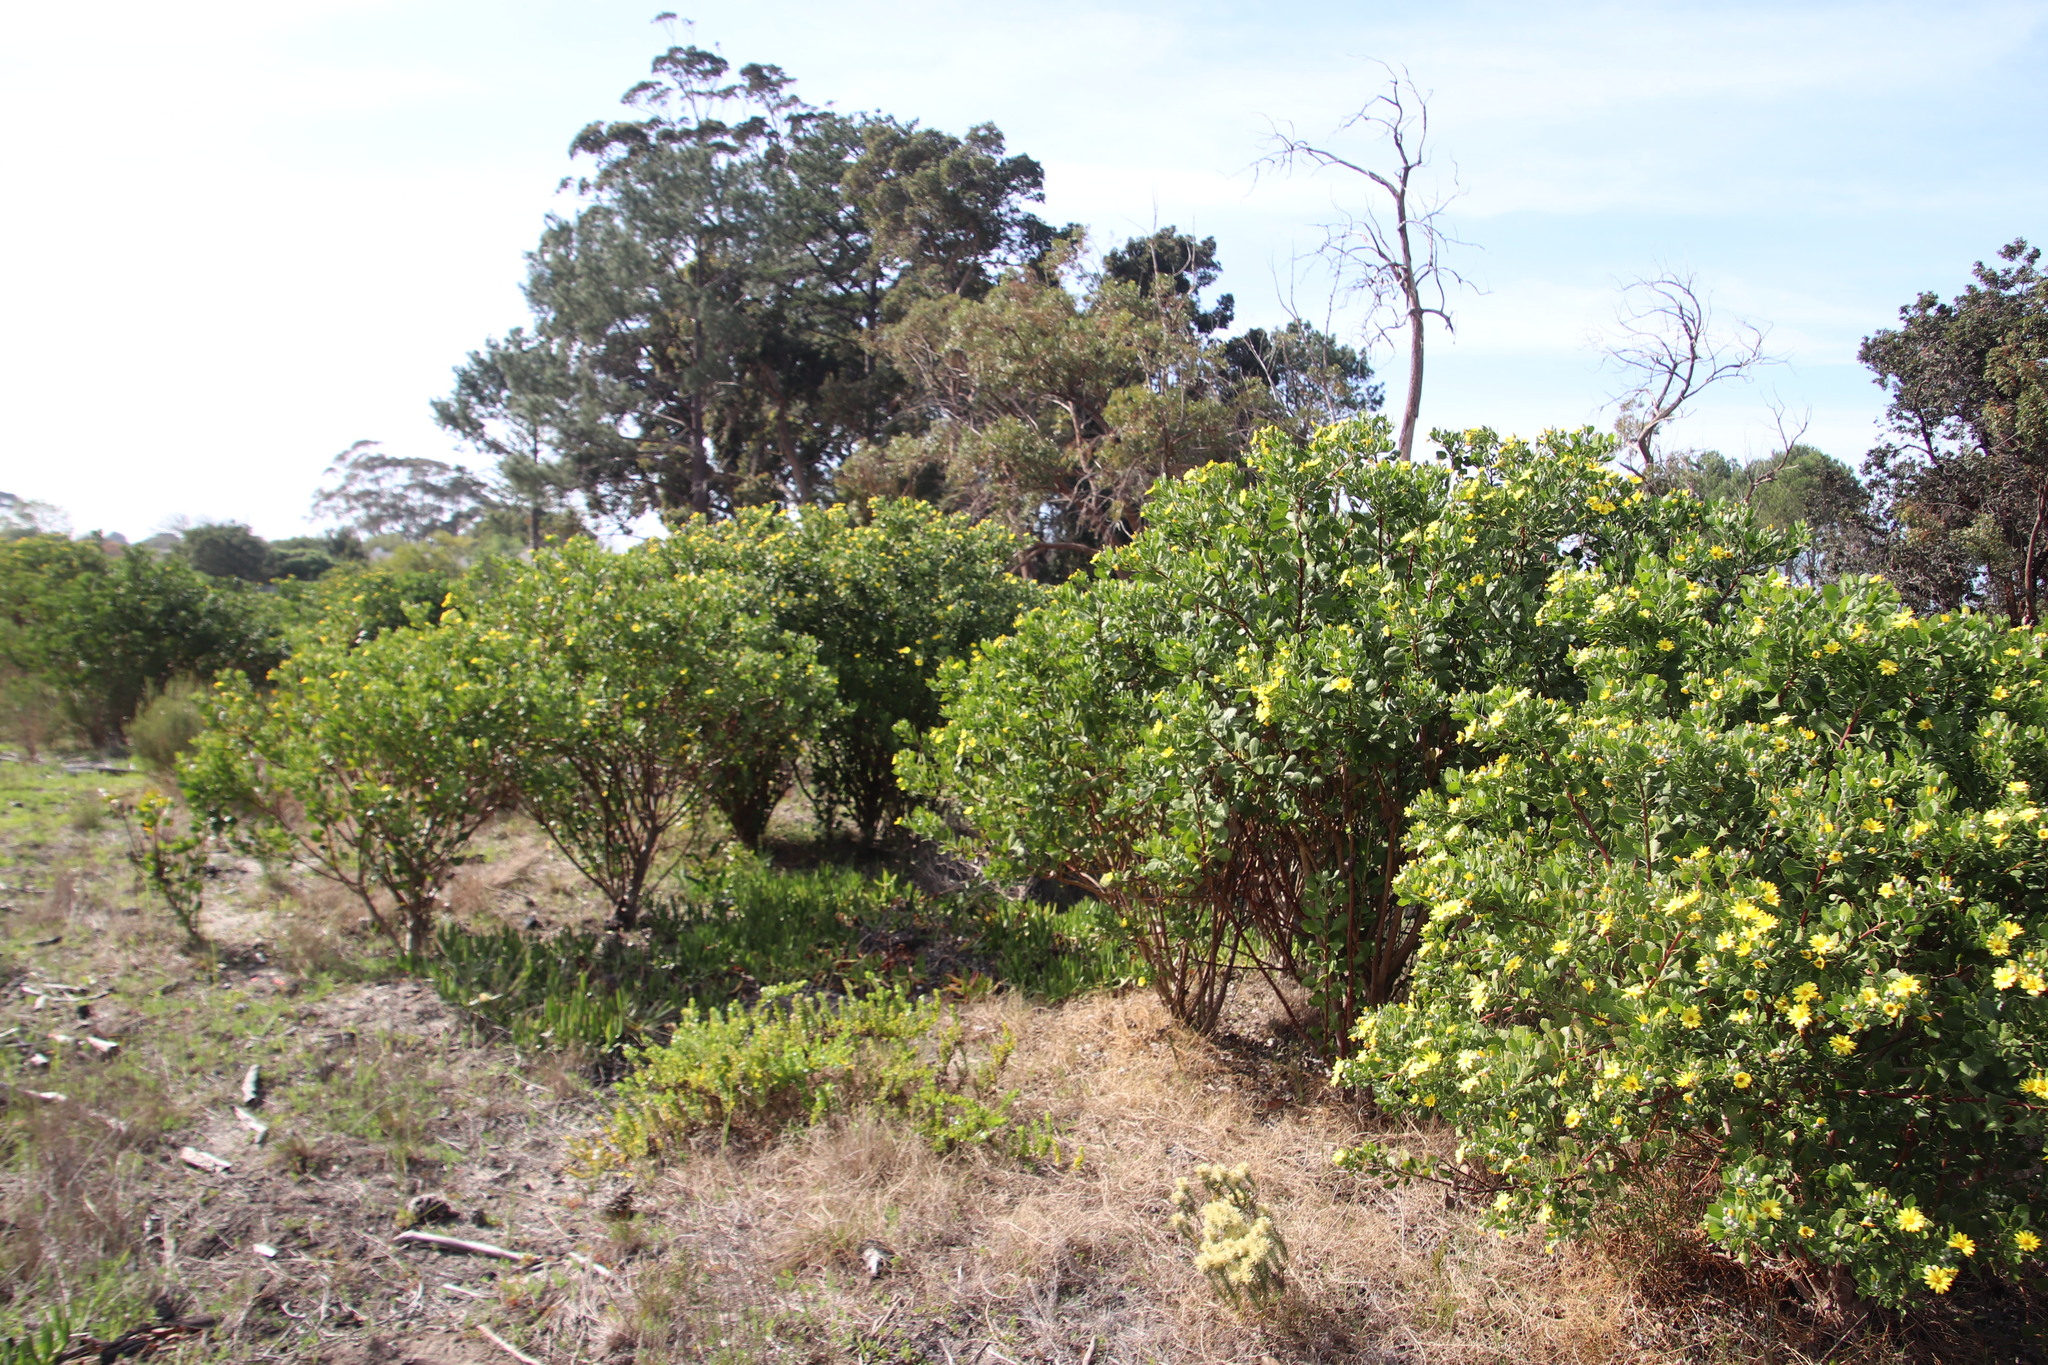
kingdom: Plantae
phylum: Tracheophyta
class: Magnoliopsida
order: Asterales
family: Asteraceae
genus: Osteospermum
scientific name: Osteospermum moniliferum
